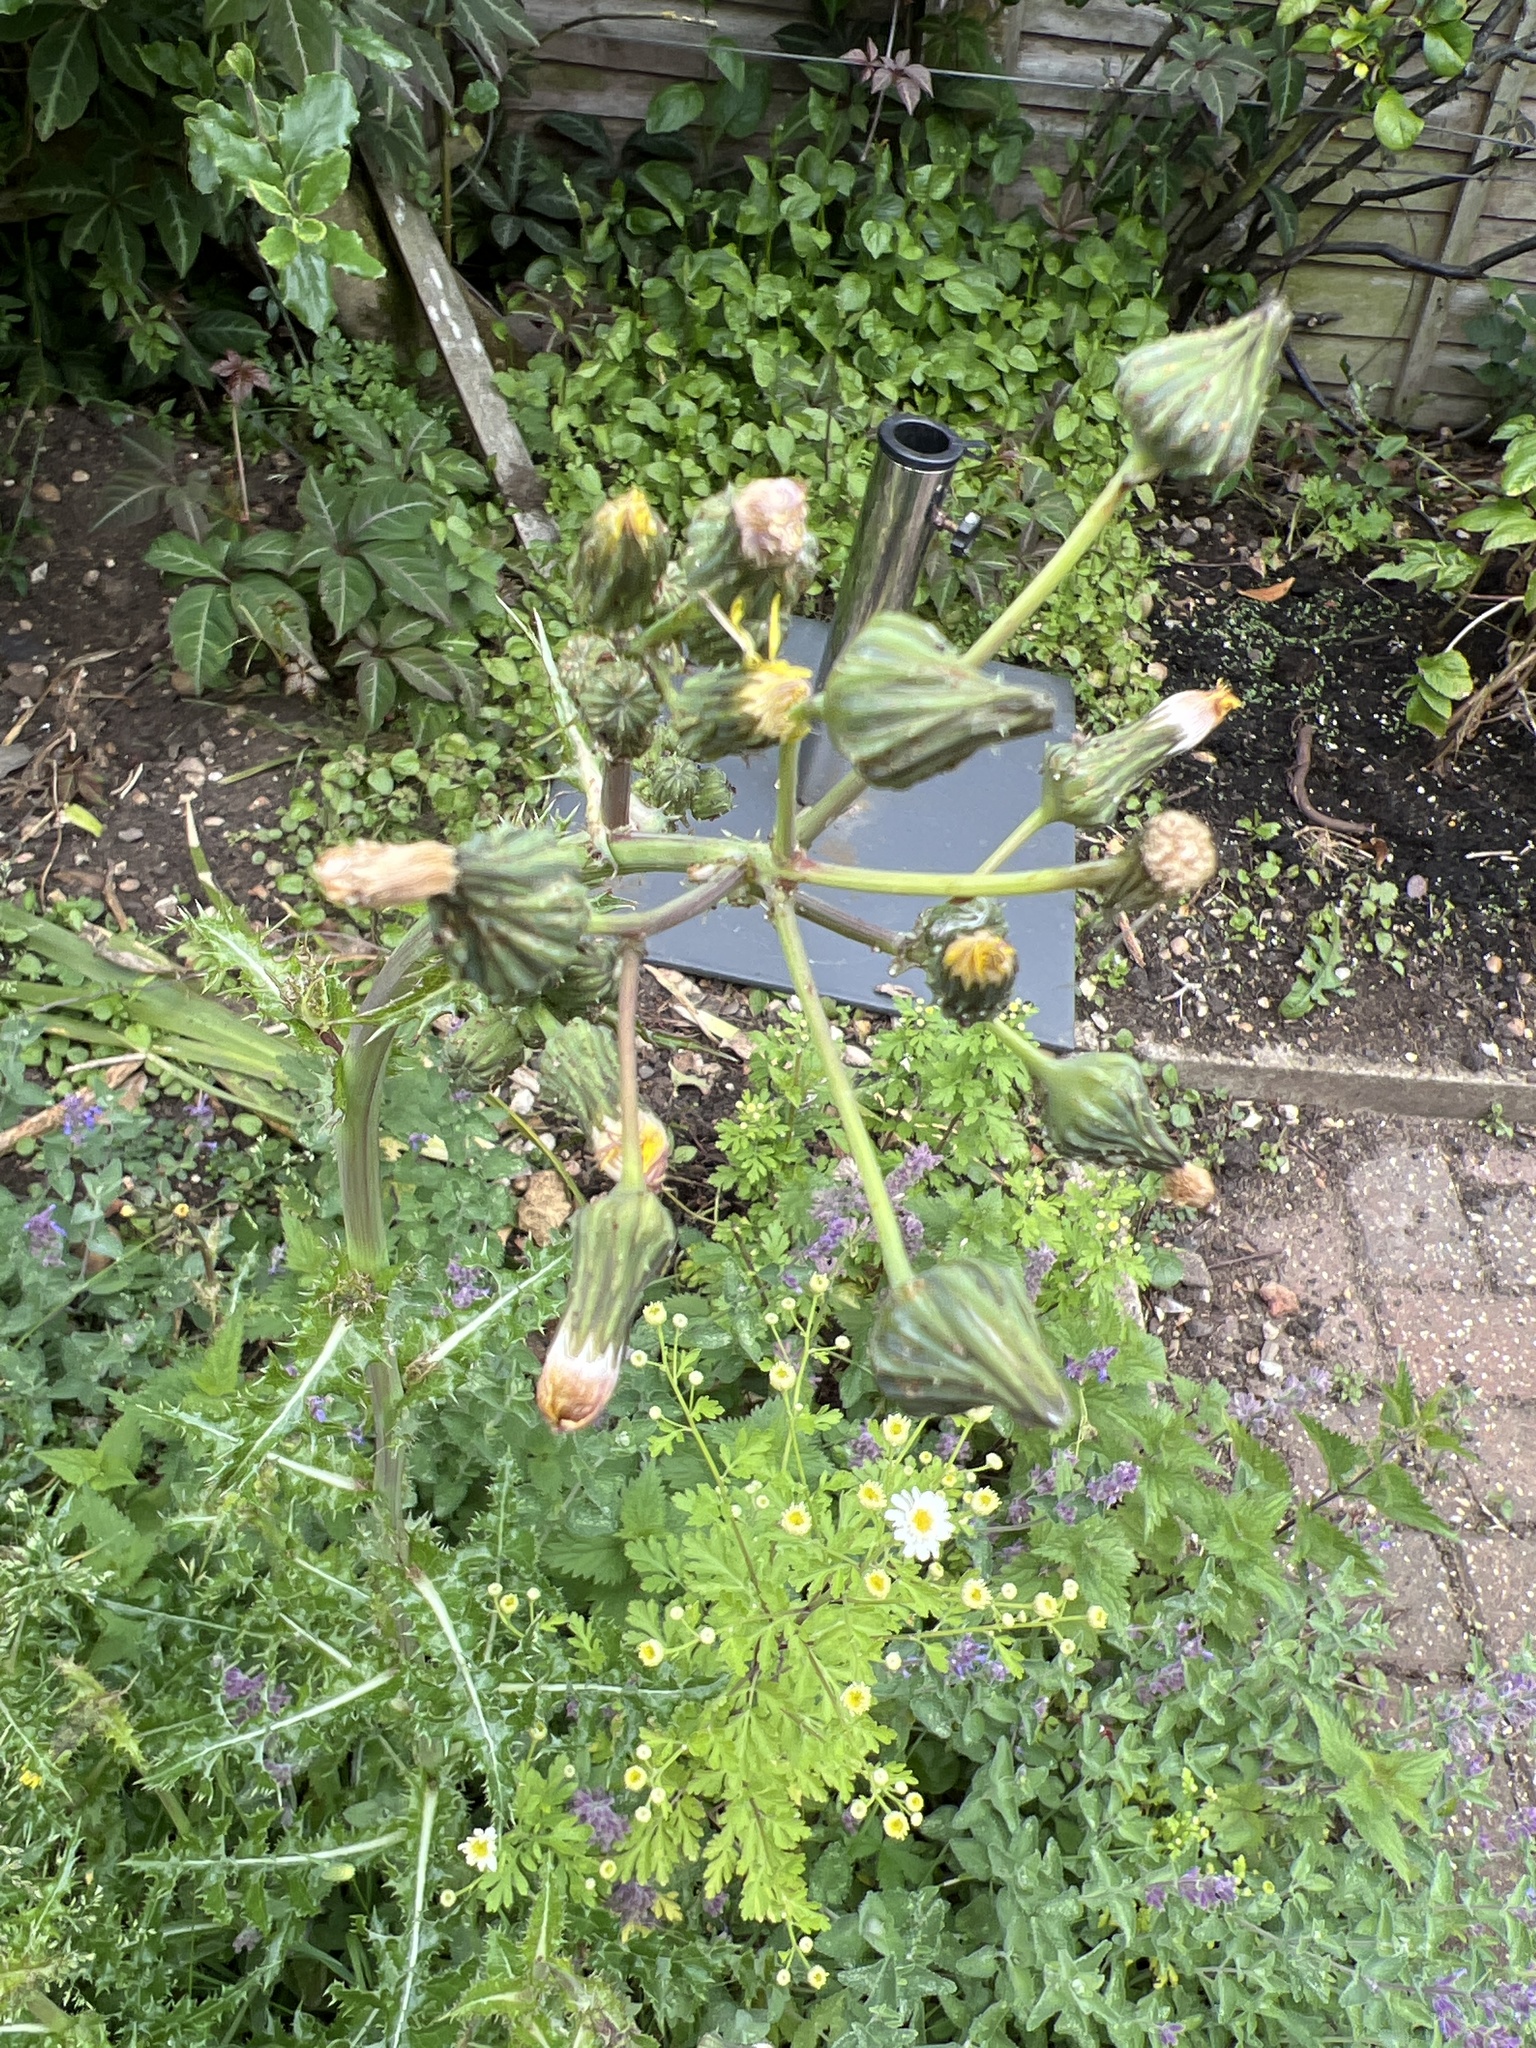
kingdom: Plantae
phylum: Tracheophyta
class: Magnoliopsida
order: Asterales
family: Asteraceae
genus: Sonchus
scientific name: Sonchus asper
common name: Prickly sow-thistle
